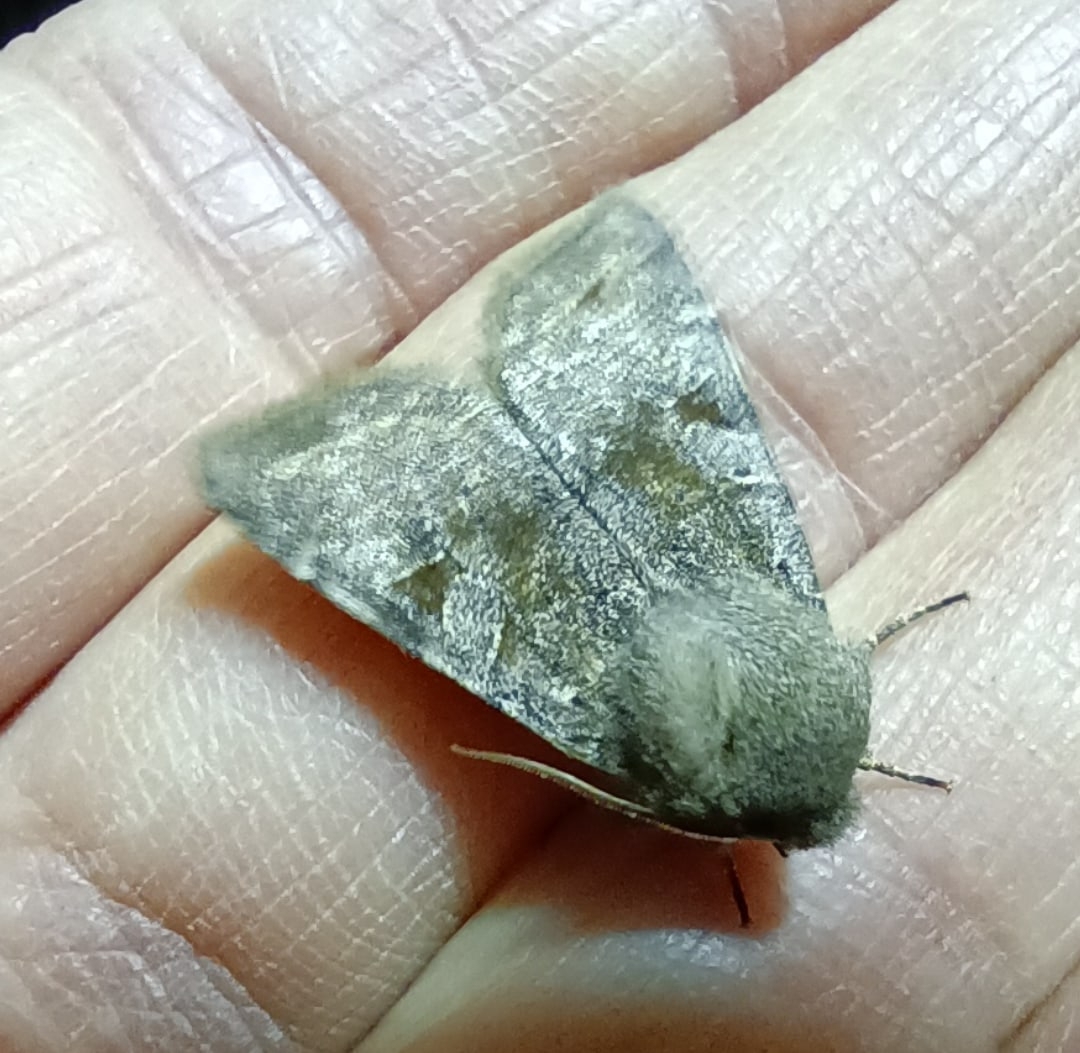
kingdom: Animalia
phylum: Arthropoda
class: Insecta
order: Lepidoptera
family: Noctuidae
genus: Orthosia
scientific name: Orthosia incerta
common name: Clouded drab
